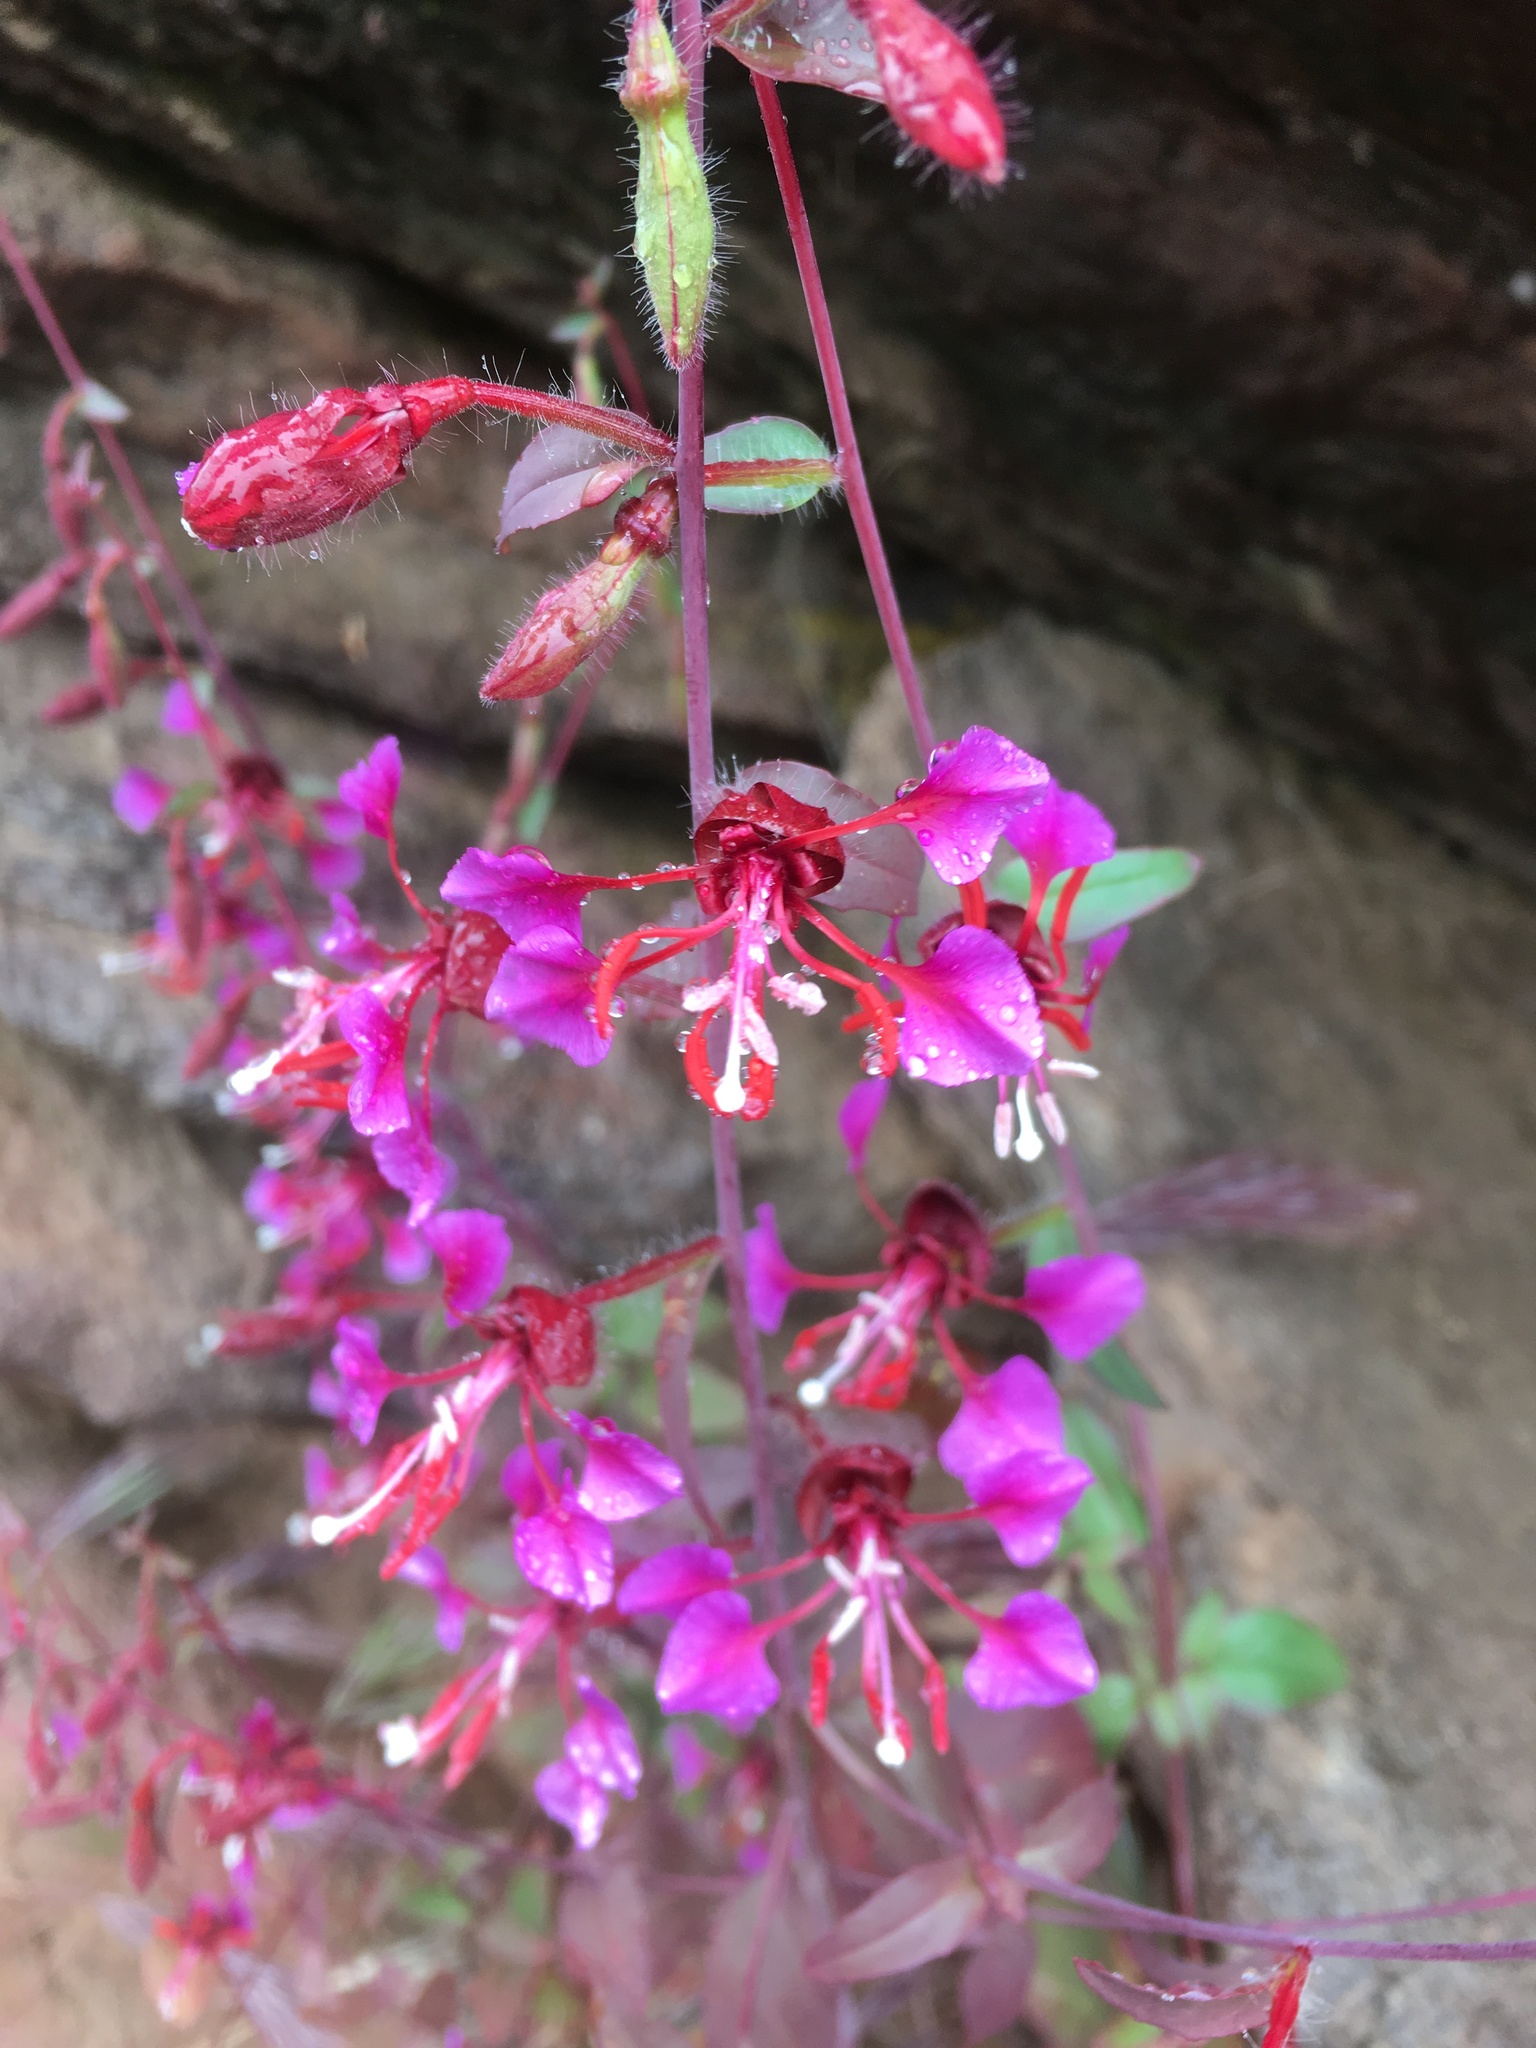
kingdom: Plantae
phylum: Tracheophyta
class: Magnoliopsida
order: Myrtales
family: Onagraceae
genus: Clarkia
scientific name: Clarkia unguiculata
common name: Clarkia
